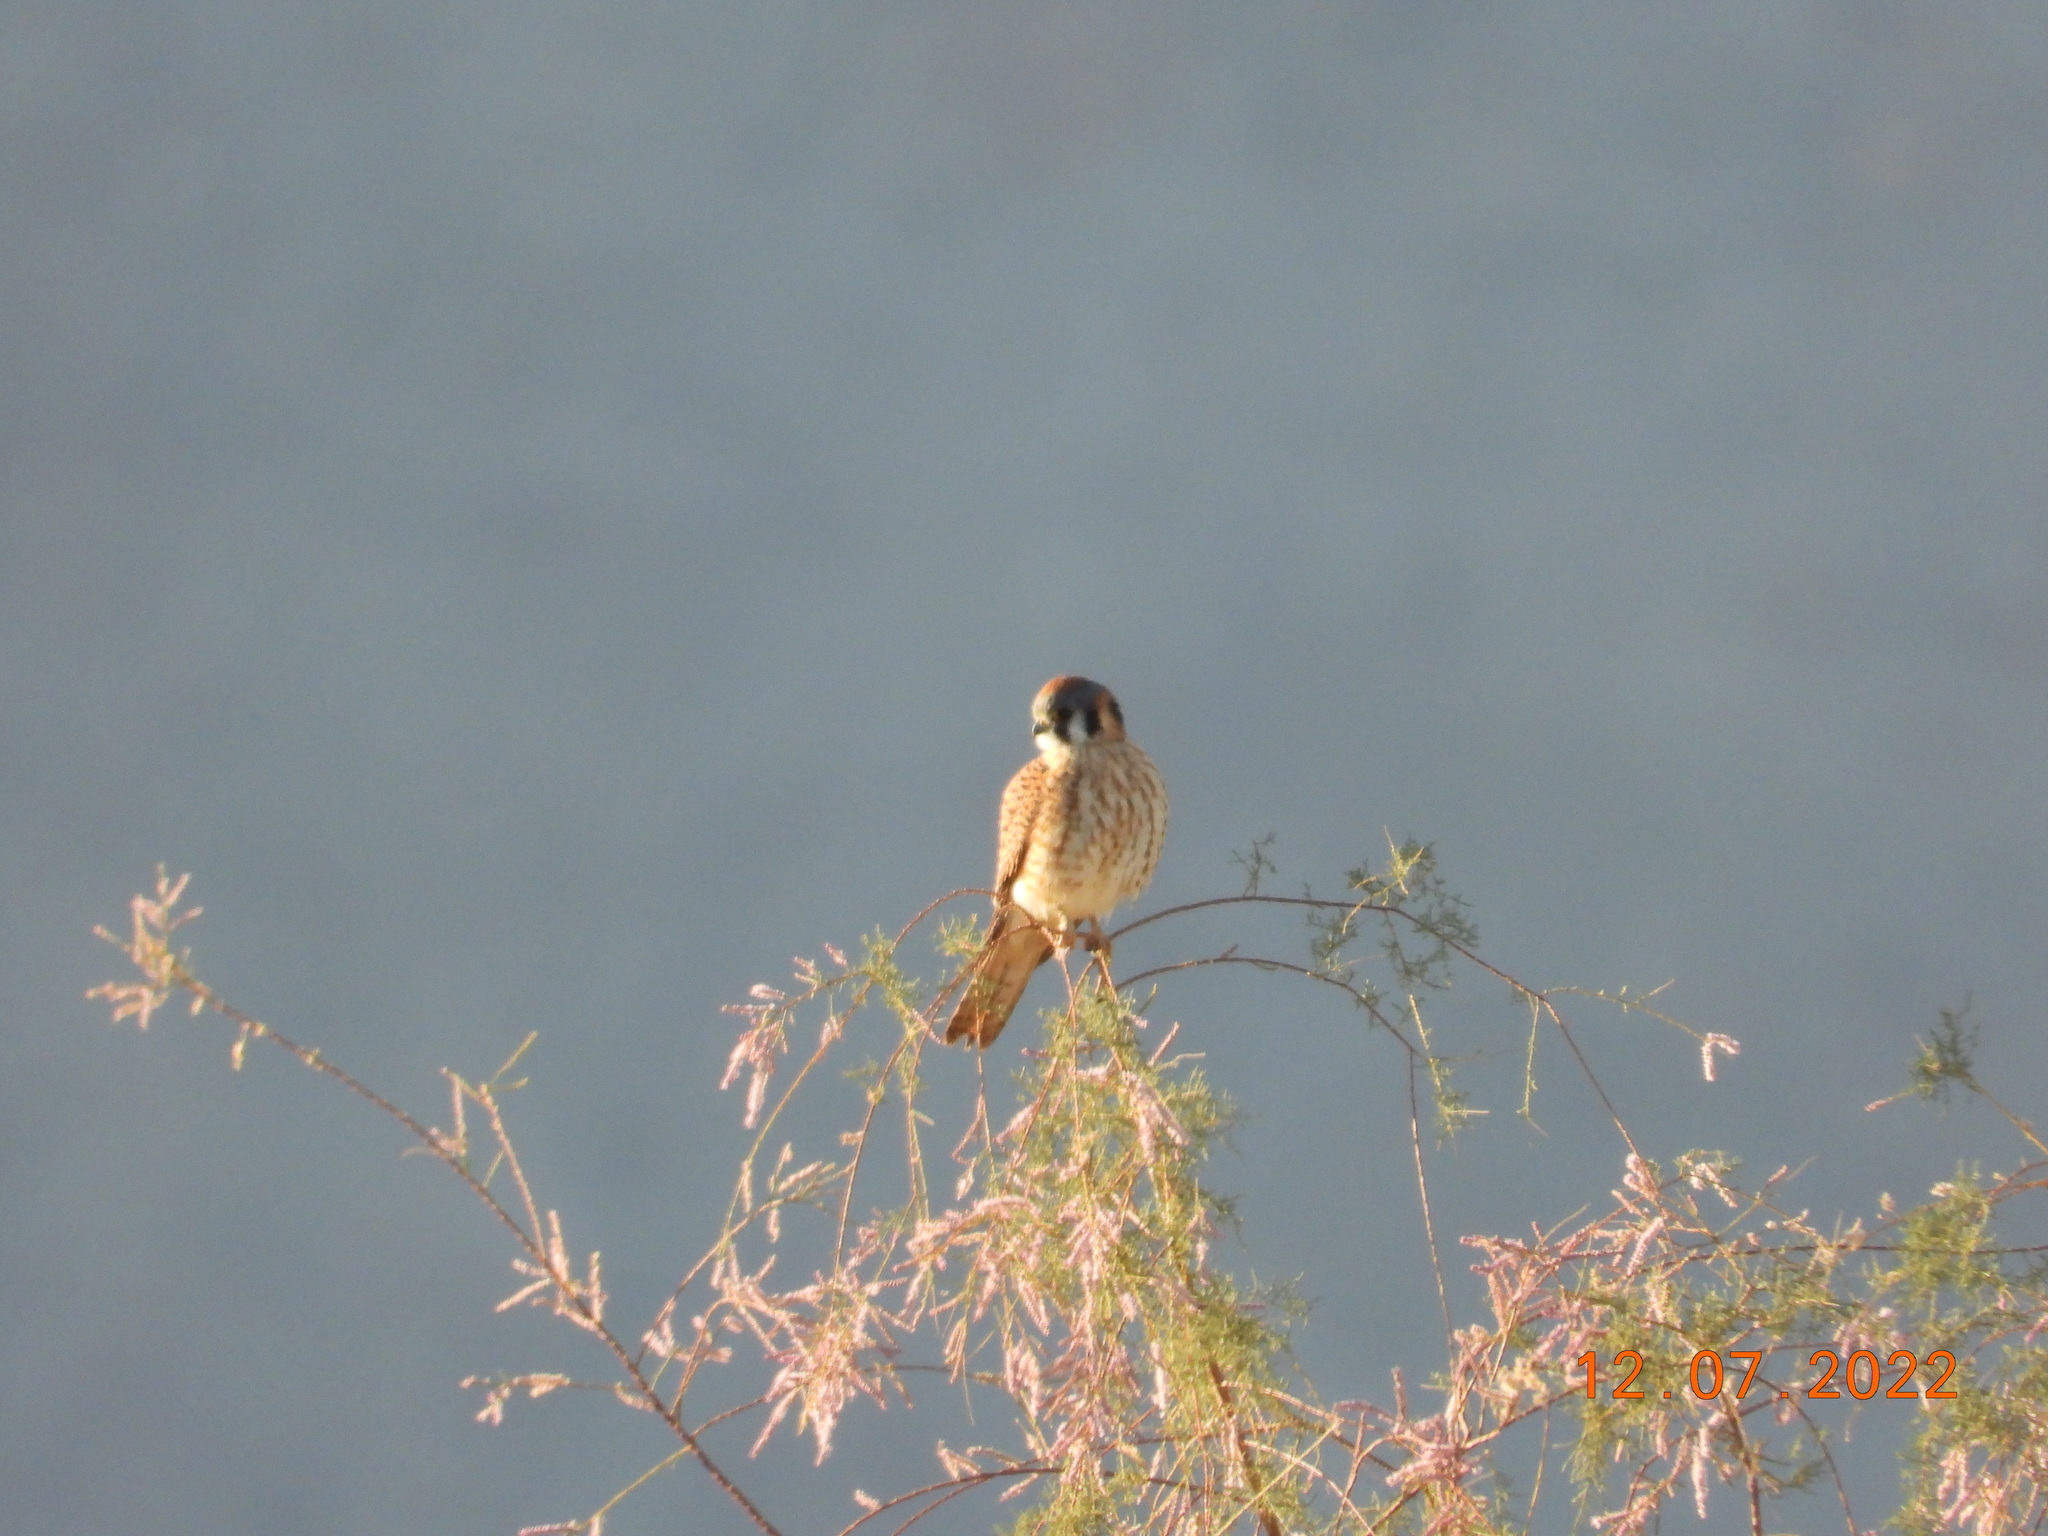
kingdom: Animalia
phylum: Chordata
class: Aves
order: Falconiformes
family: Falconidae
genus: Falco
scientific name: Falco sparverius
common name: American kestrel
